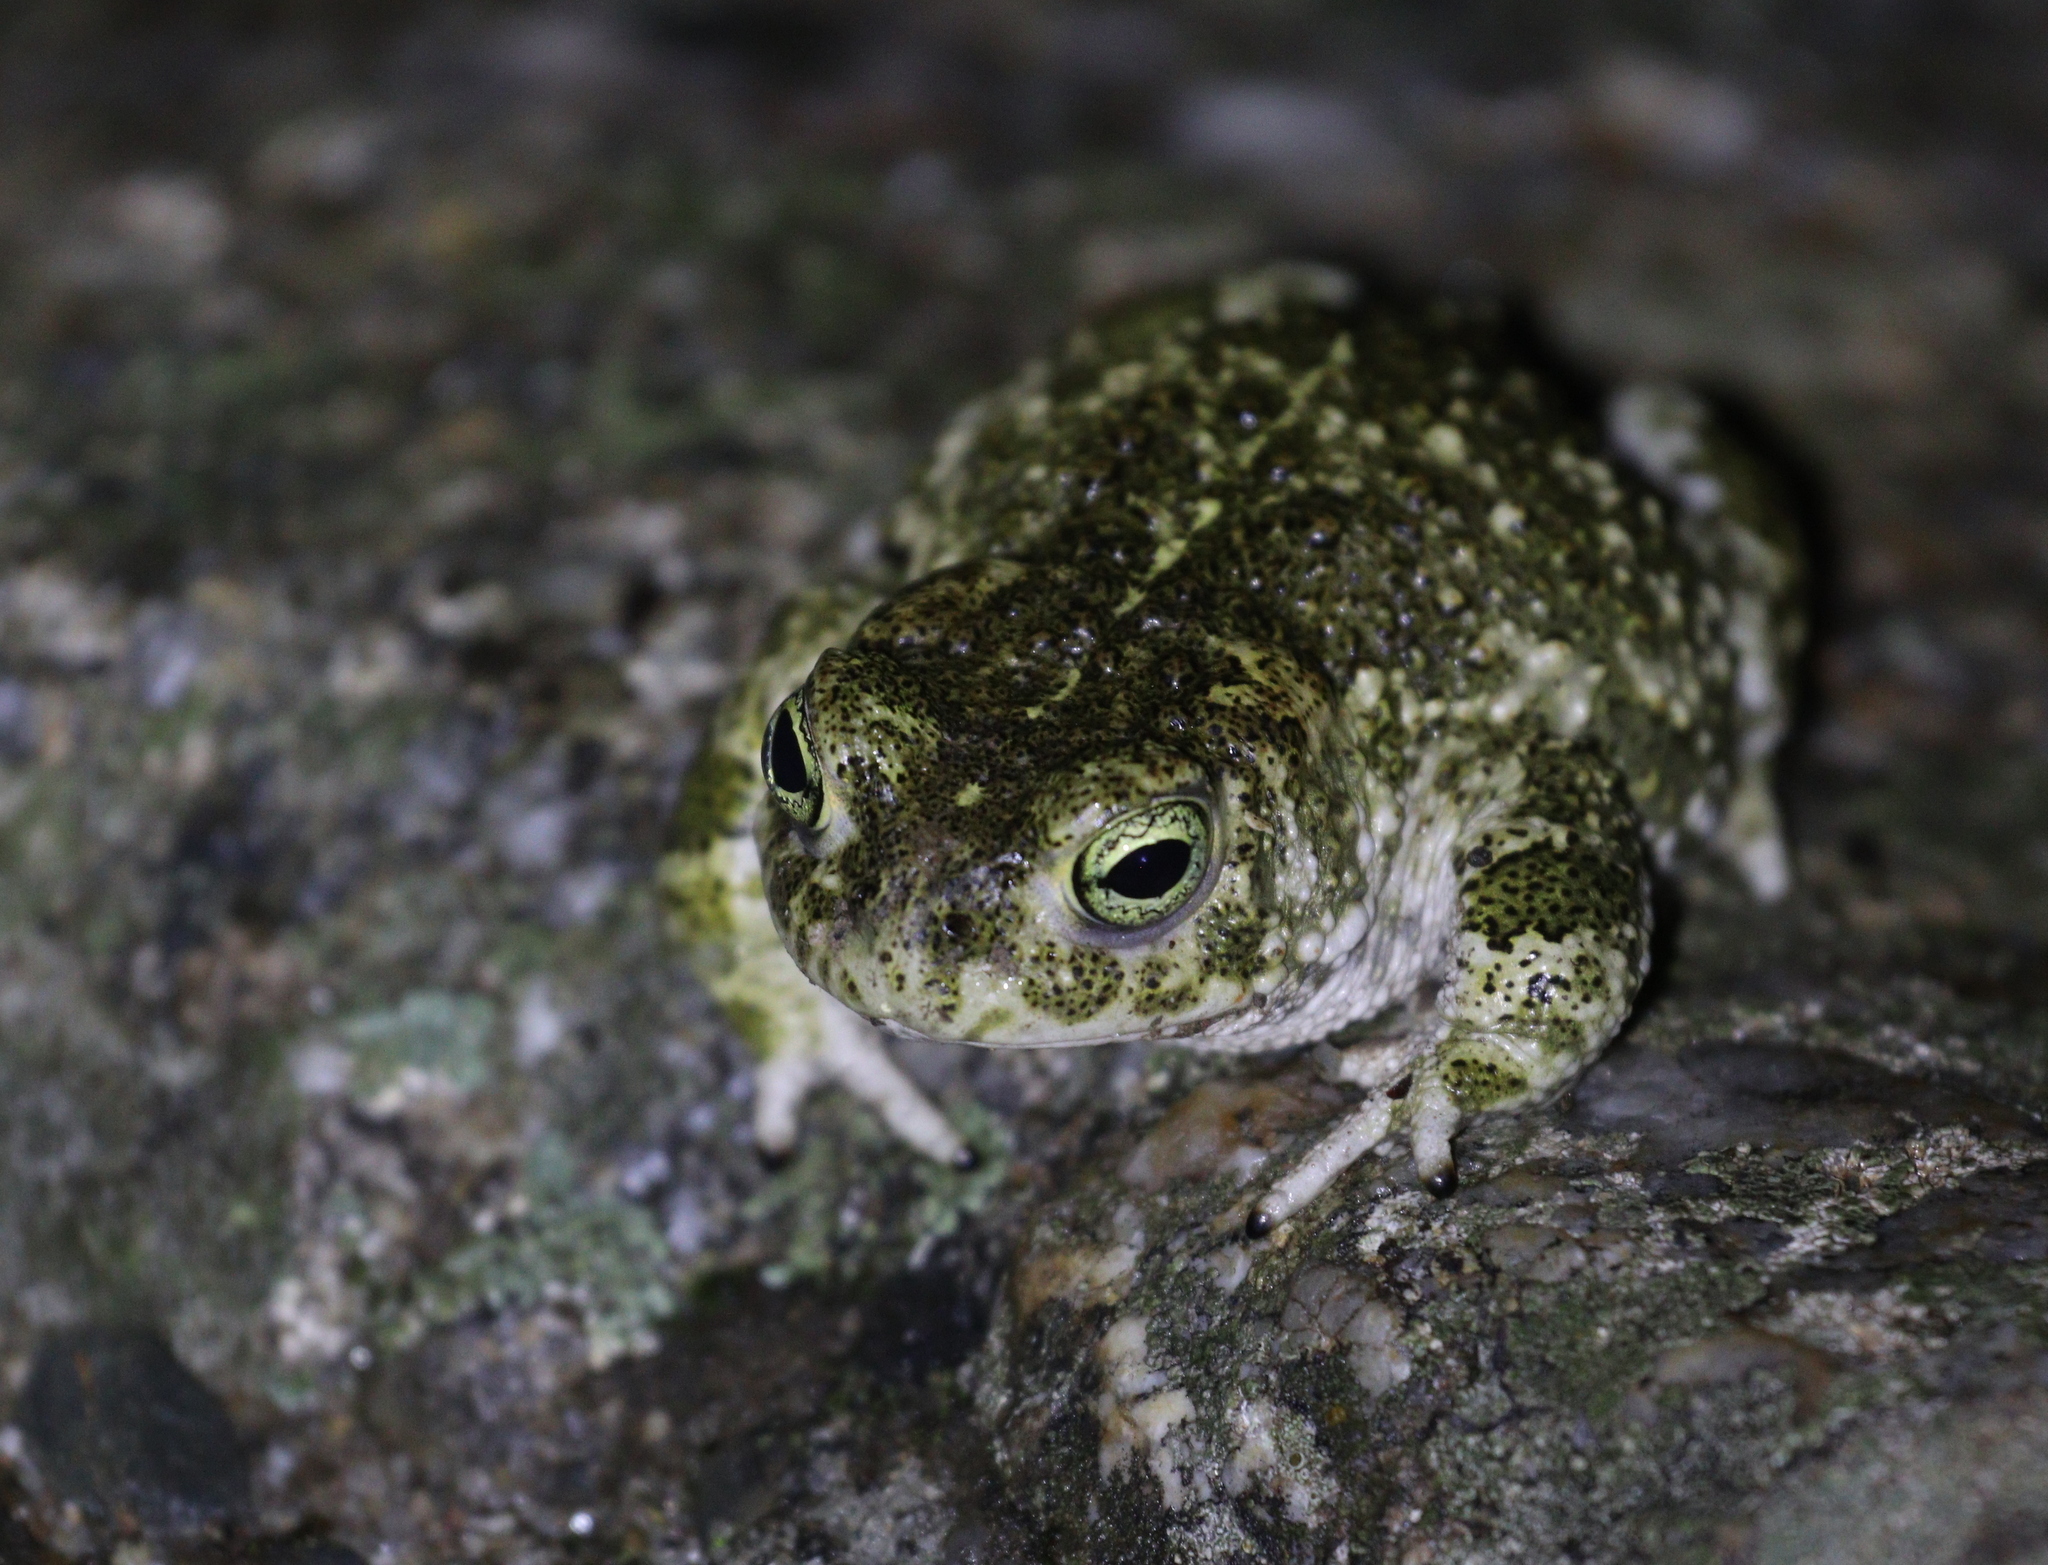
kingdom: Animalia
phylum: Chordata
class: Amphibia
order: Anura
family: Bufonidae
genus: Epidalea
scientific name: Epidalea calamita
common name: Natterjack toad
